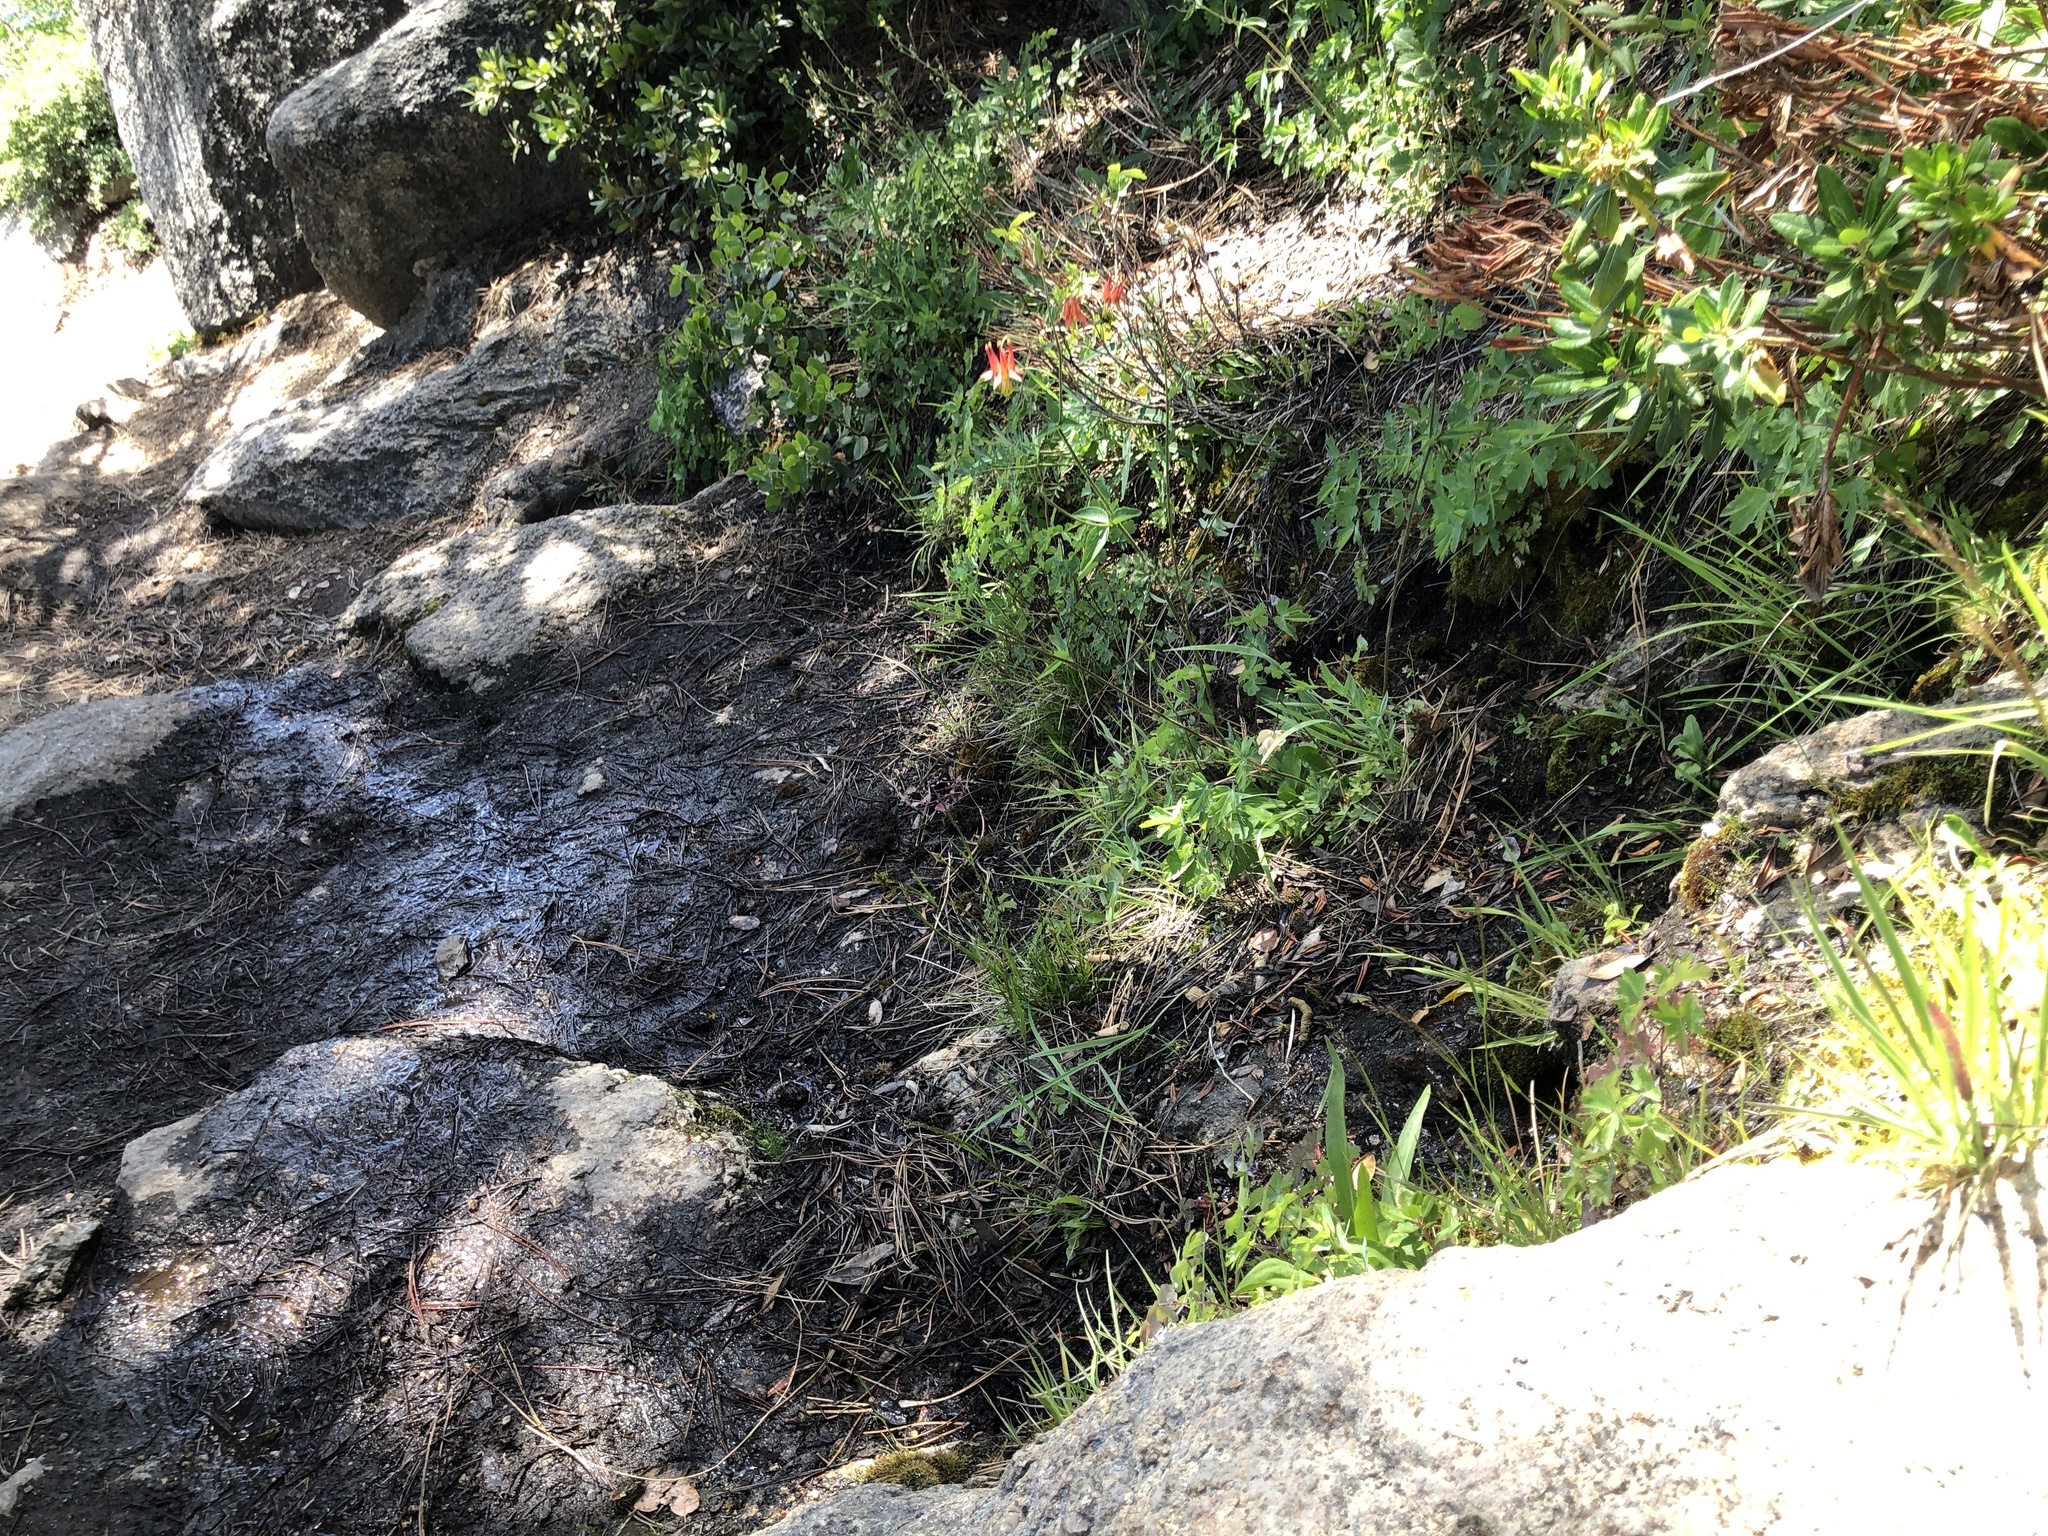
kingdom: Plantae
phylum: Tracheophyta
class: Magnoliopsida
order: Ranunculales
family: Ranunculaceae
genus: Aquilegia
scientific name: Aquilegia formosa
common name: Sitka columbine
